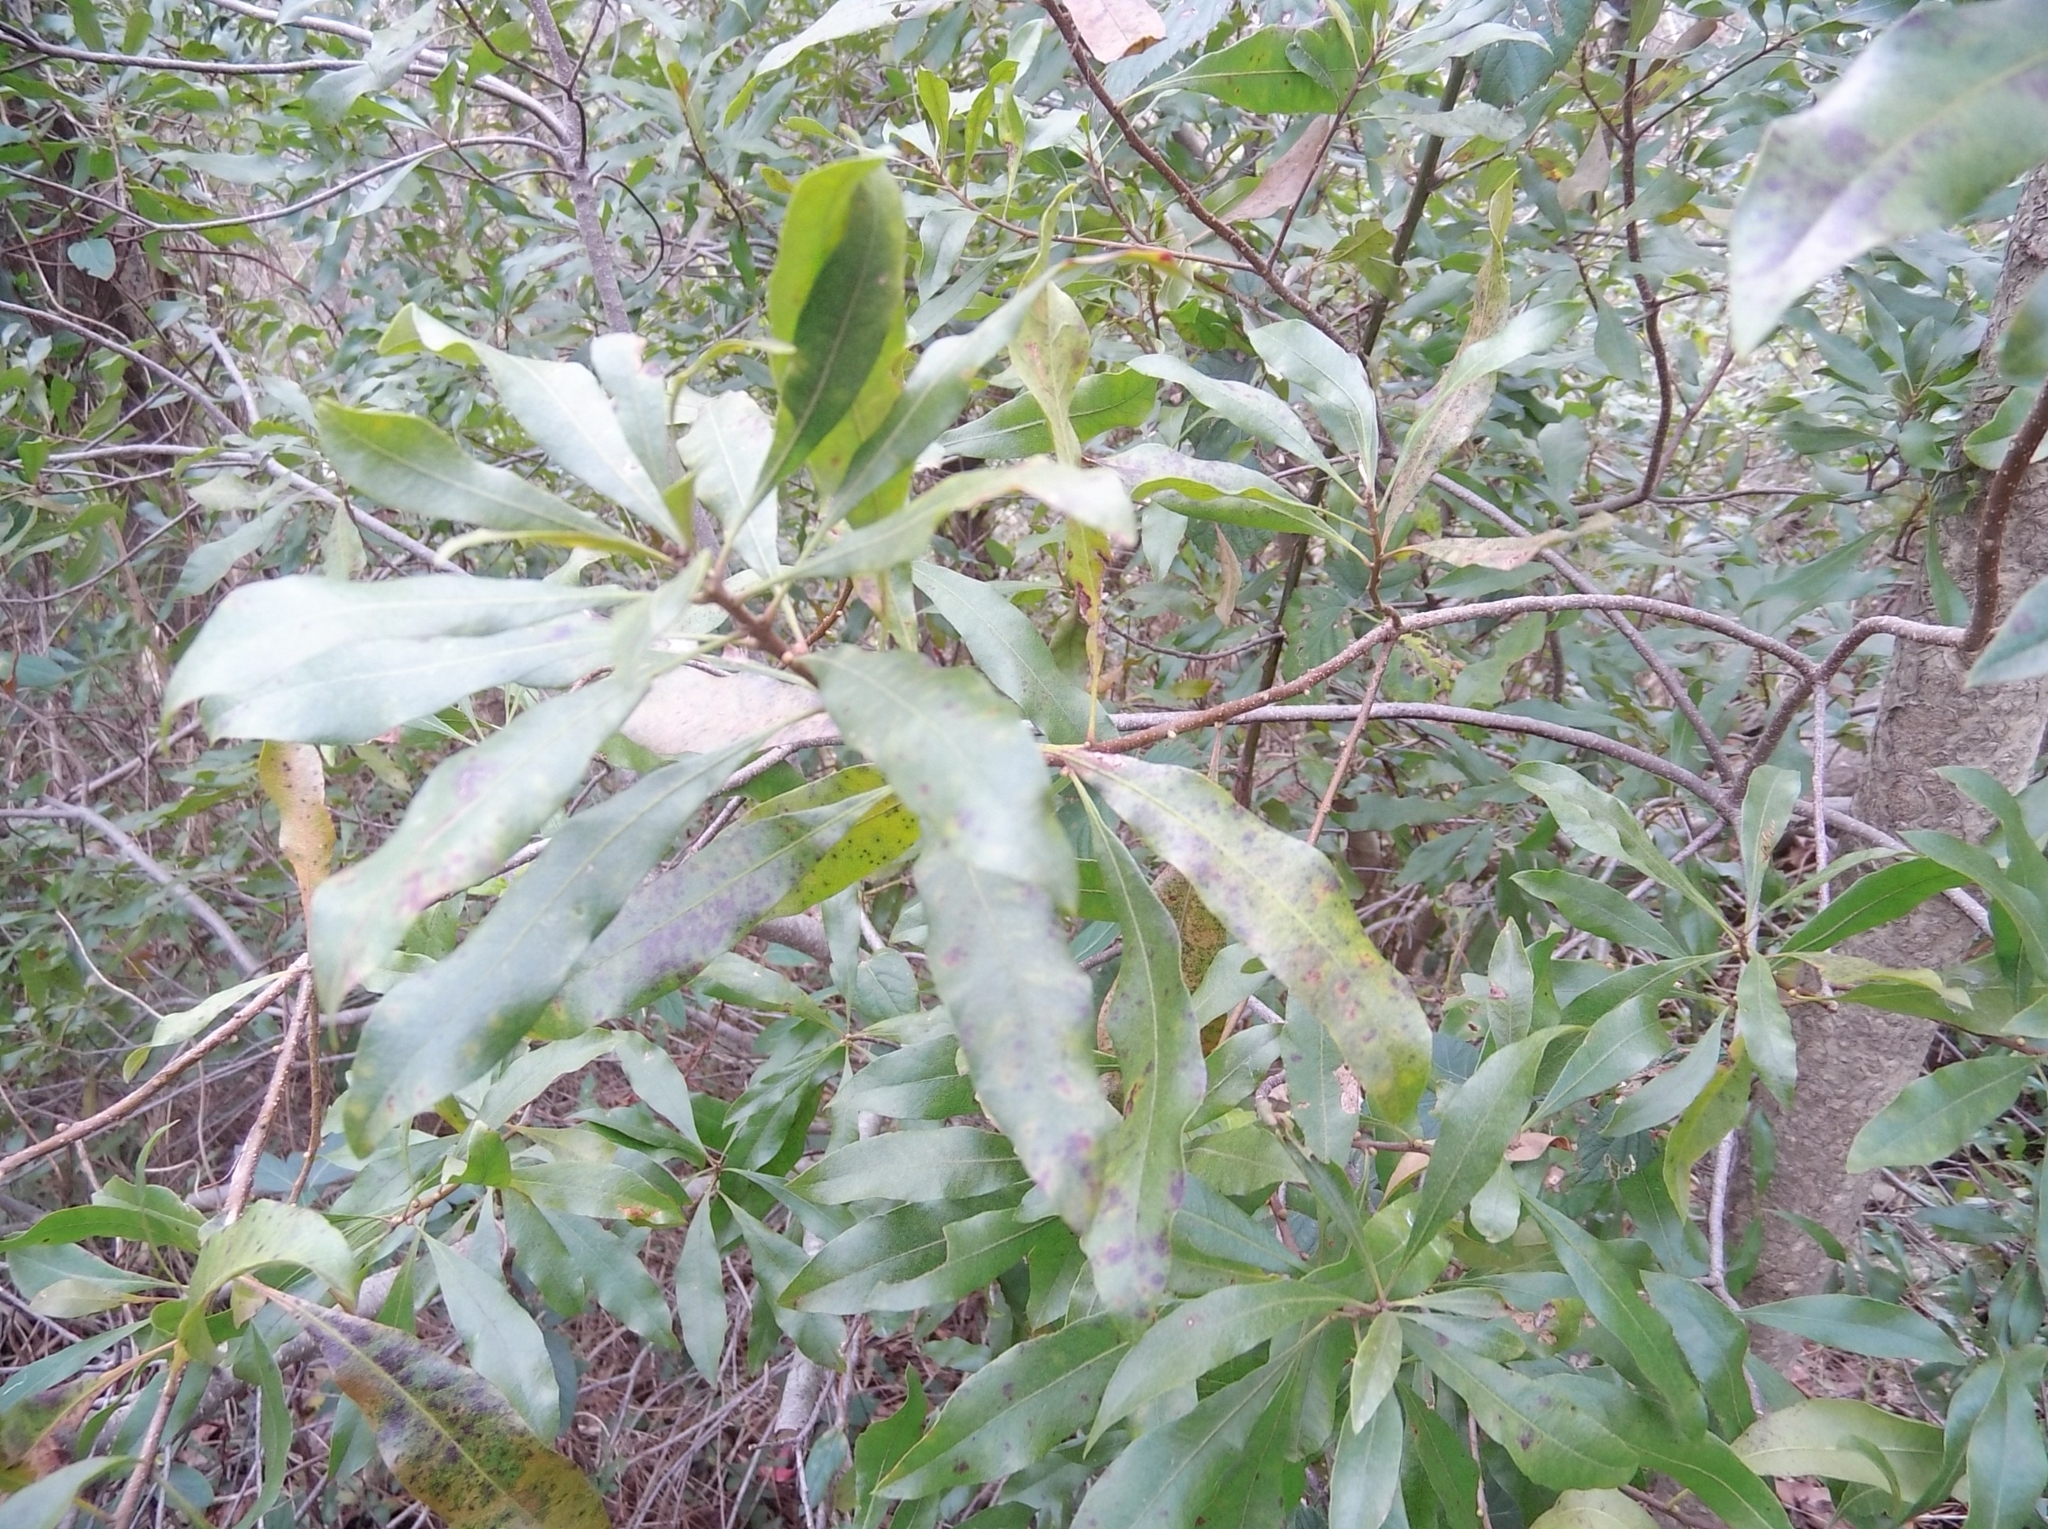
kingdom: Plantae
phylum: Tracheophyta
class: Magnoliopsida
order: Fagales
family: Myricaceae
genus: Morella
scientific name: Morella cerifera
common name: Wax myrtle
